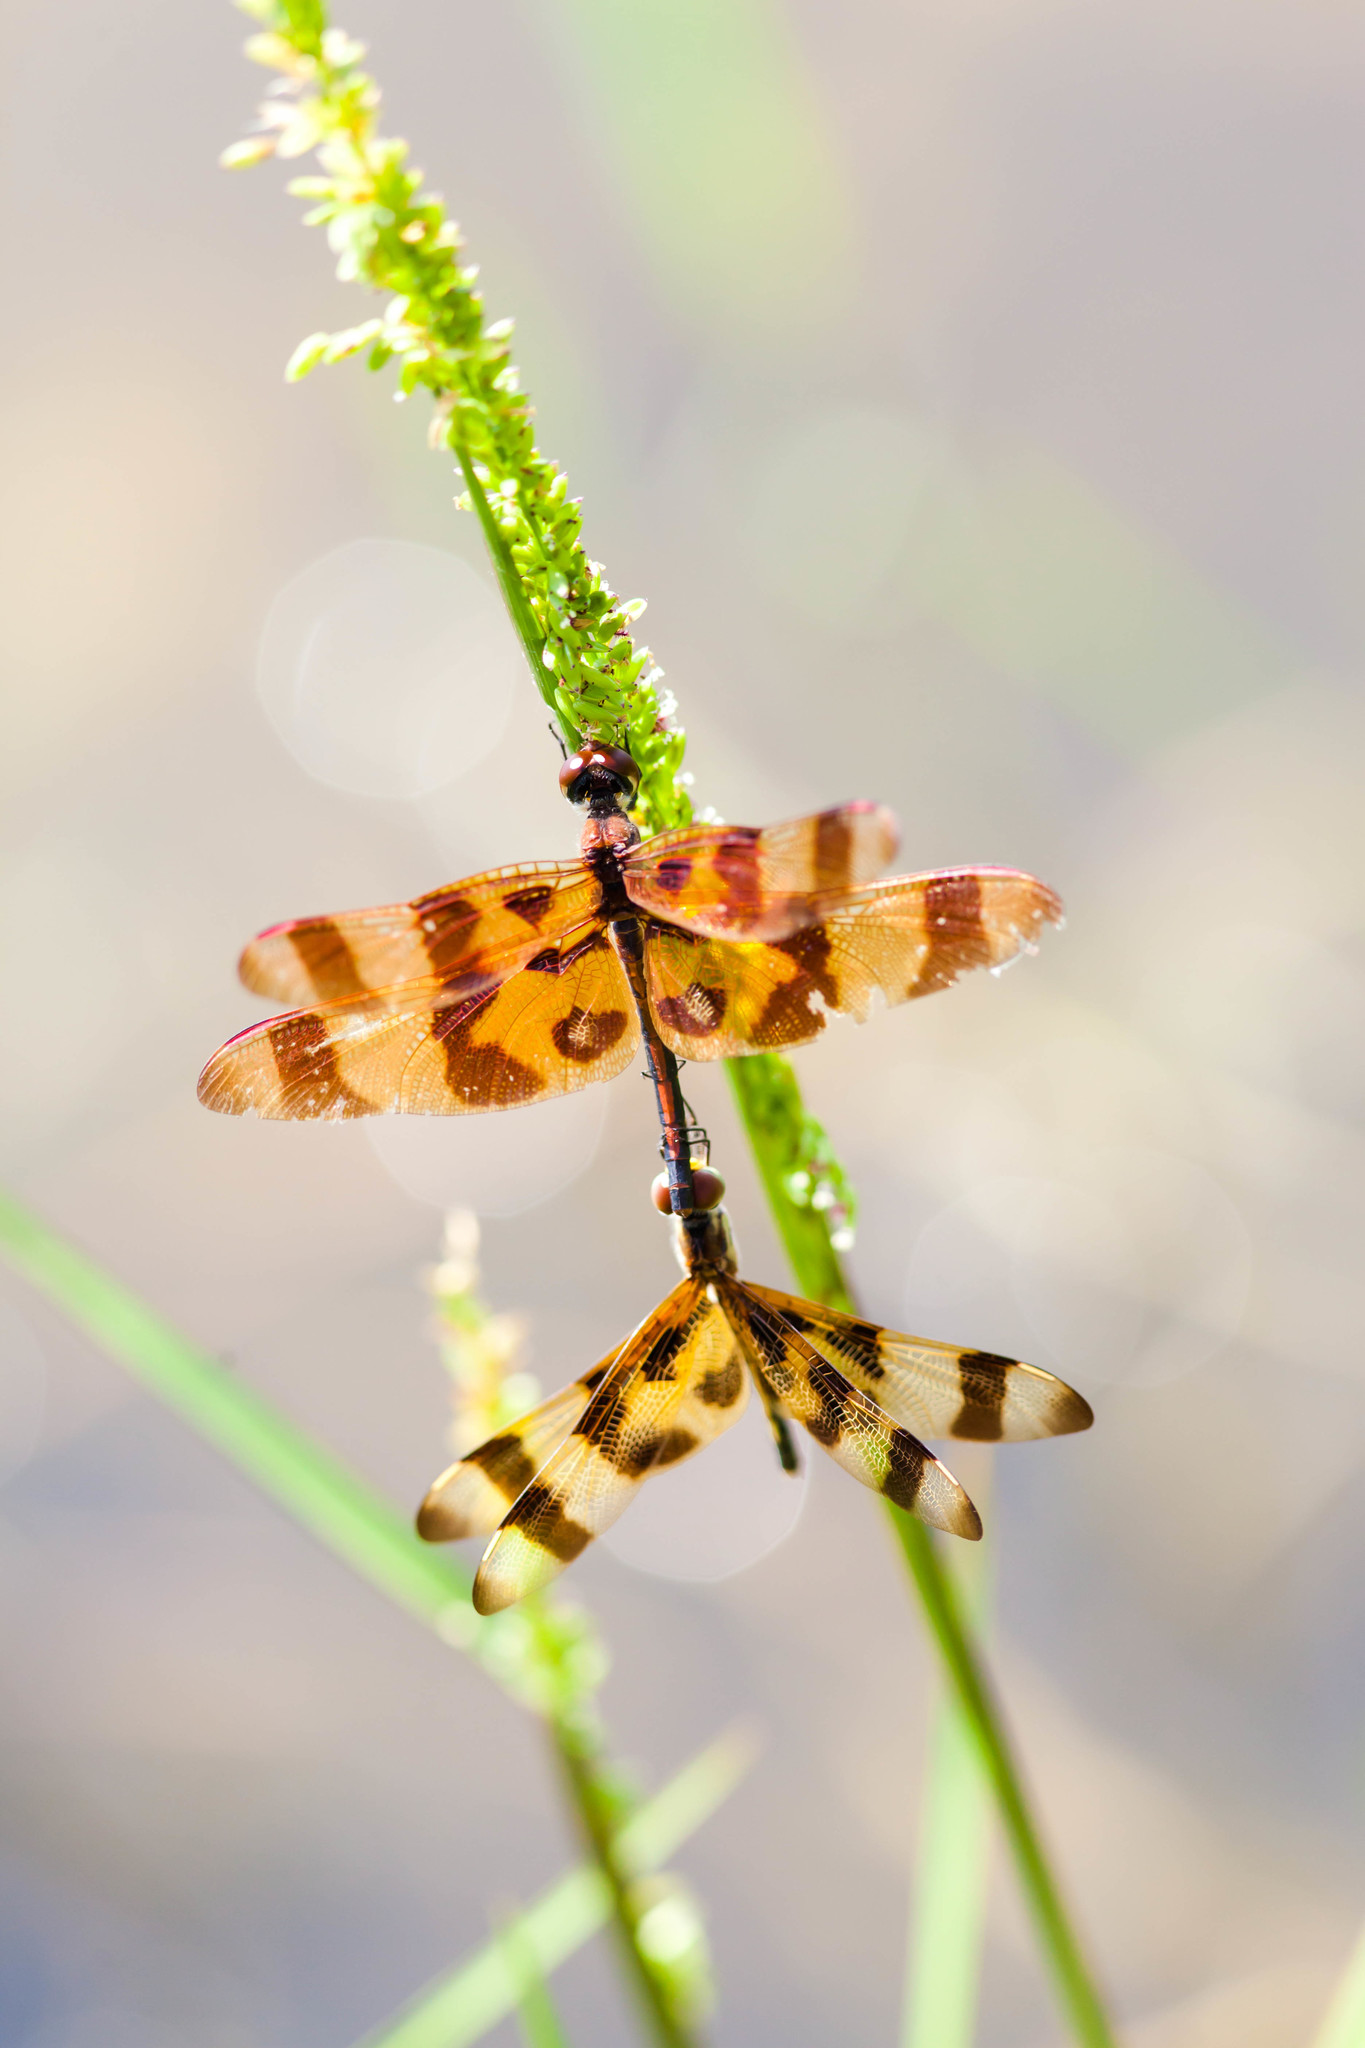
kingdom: Animalia
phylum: Arthropoda
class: Insecta
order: Odonata
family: Libellulidae
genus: Celithemis
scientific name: Celithemis eponina
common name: Halloween pennant
